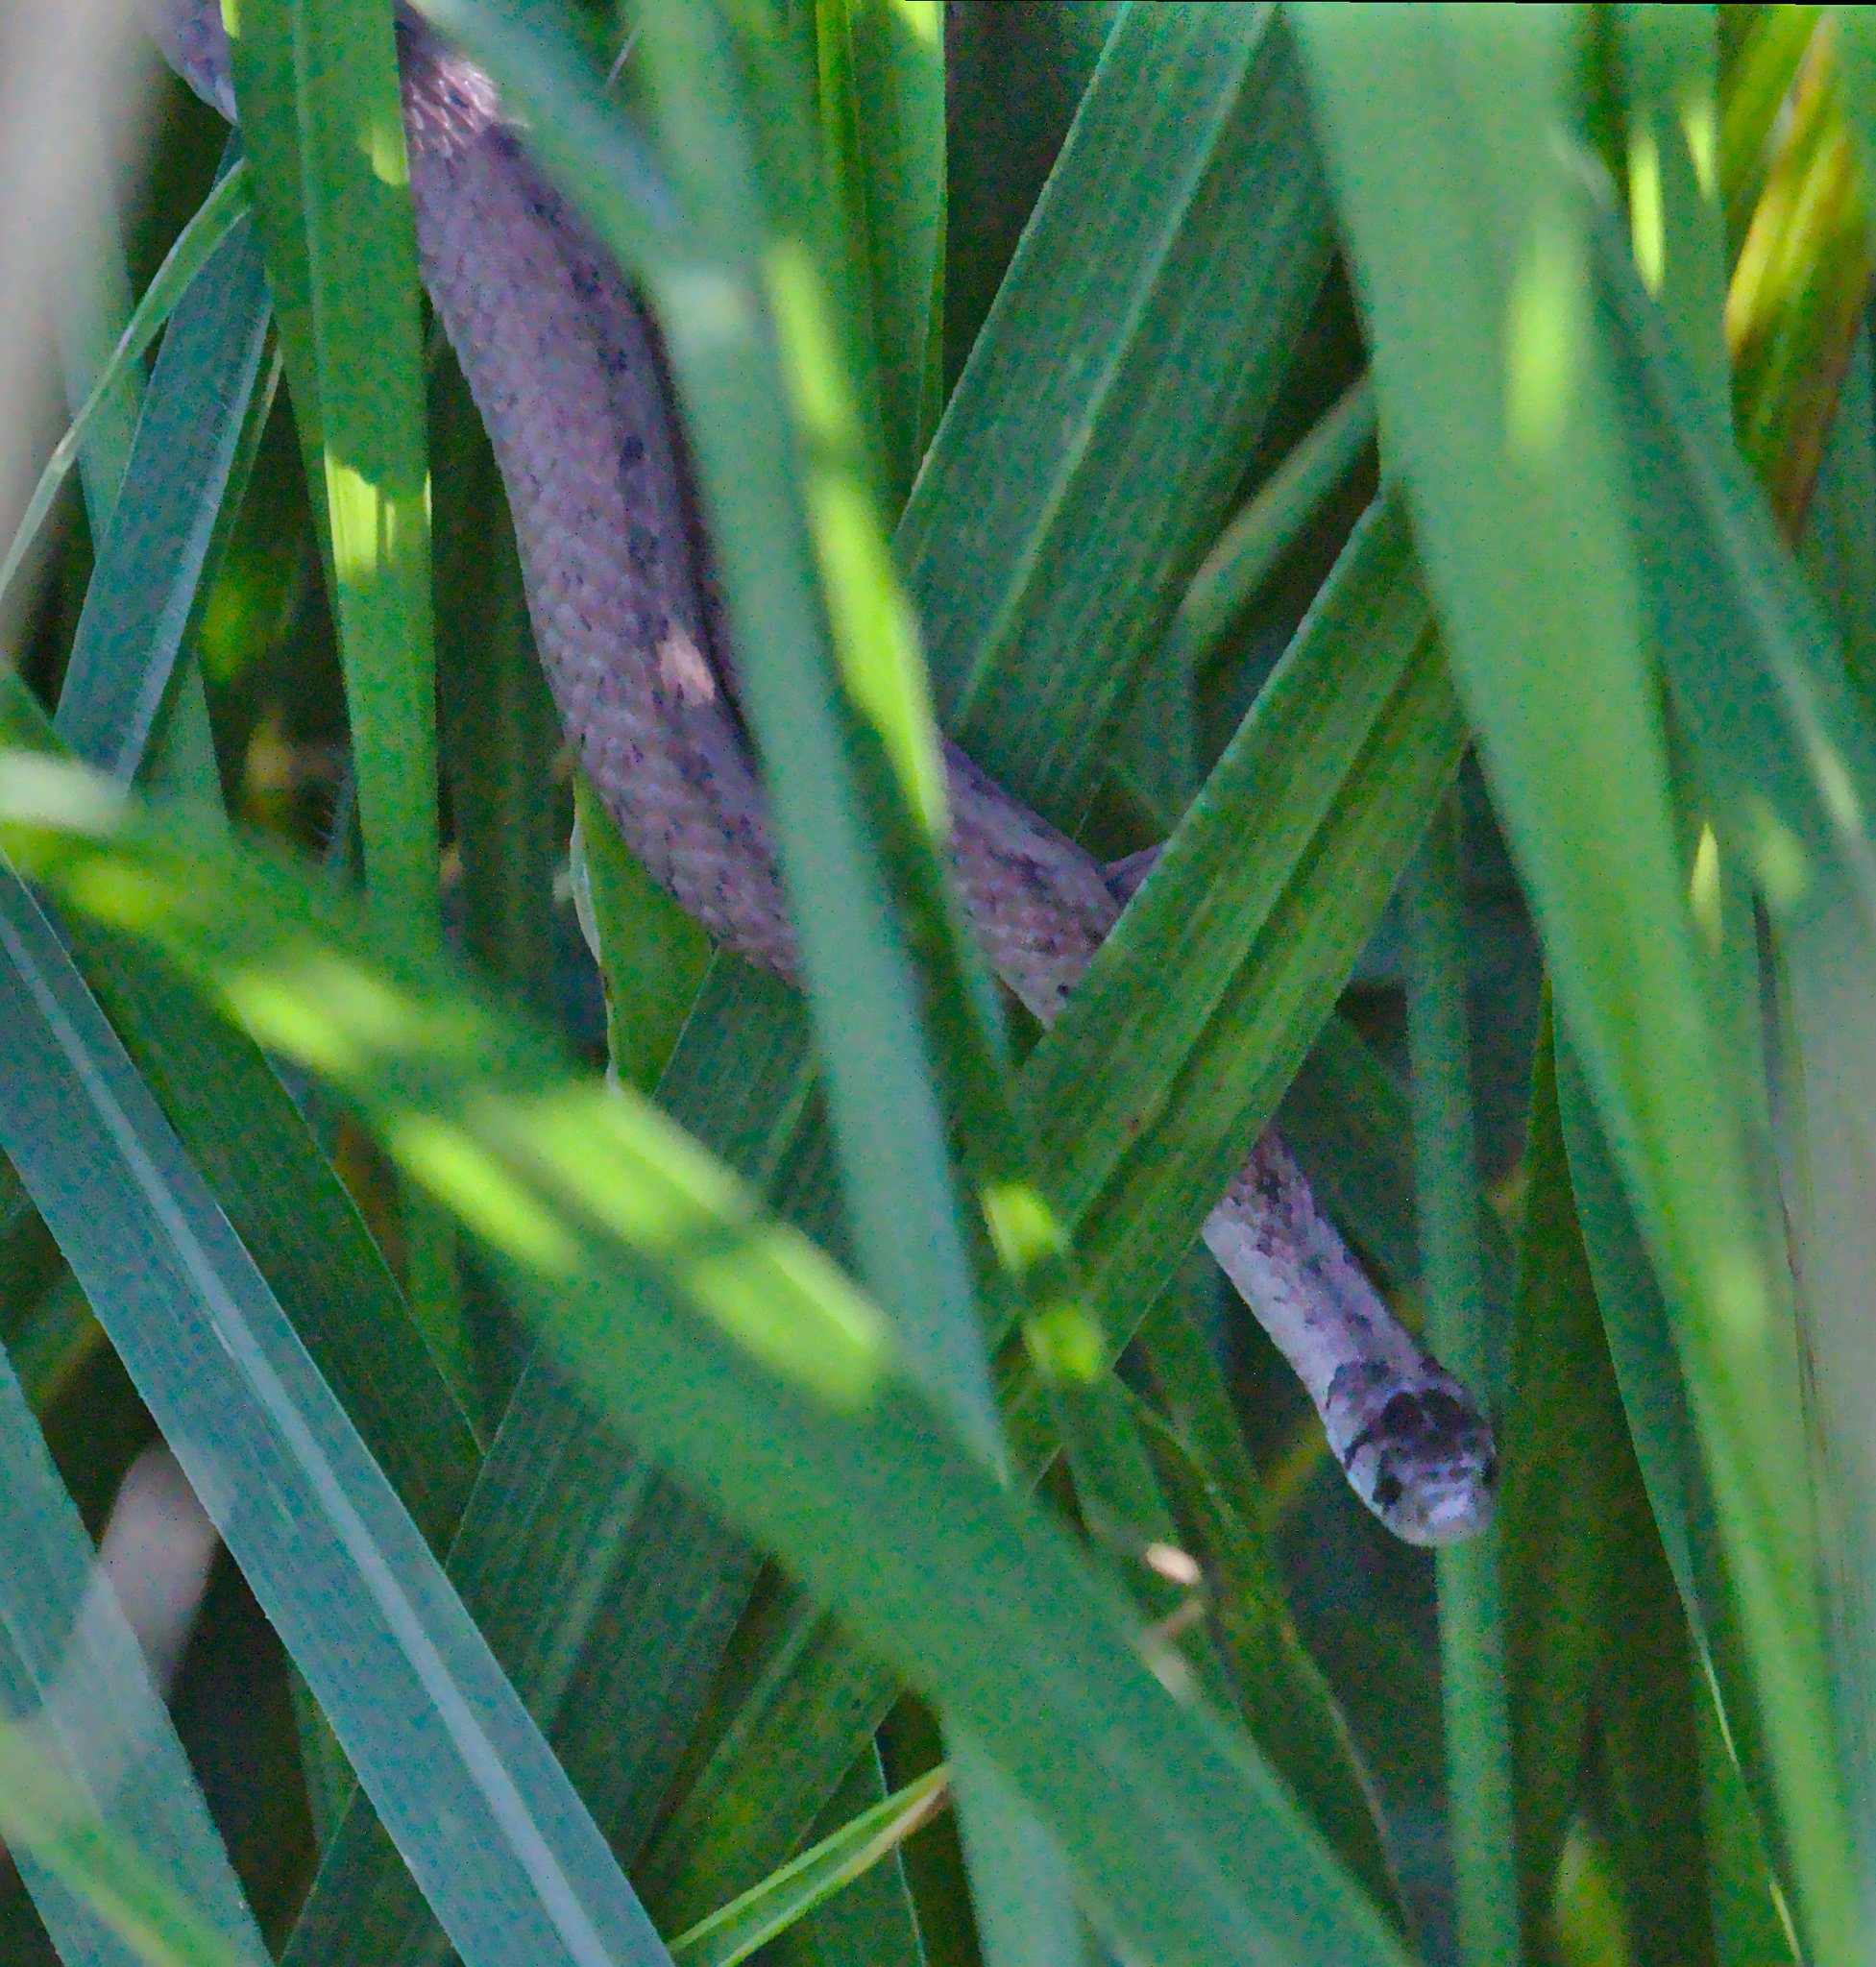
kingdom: Animalia
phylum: Chordata
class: Squamata
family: Colubridae
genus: Storeria
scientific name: Storeria dekayi
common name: (dekay’s) brown snake
